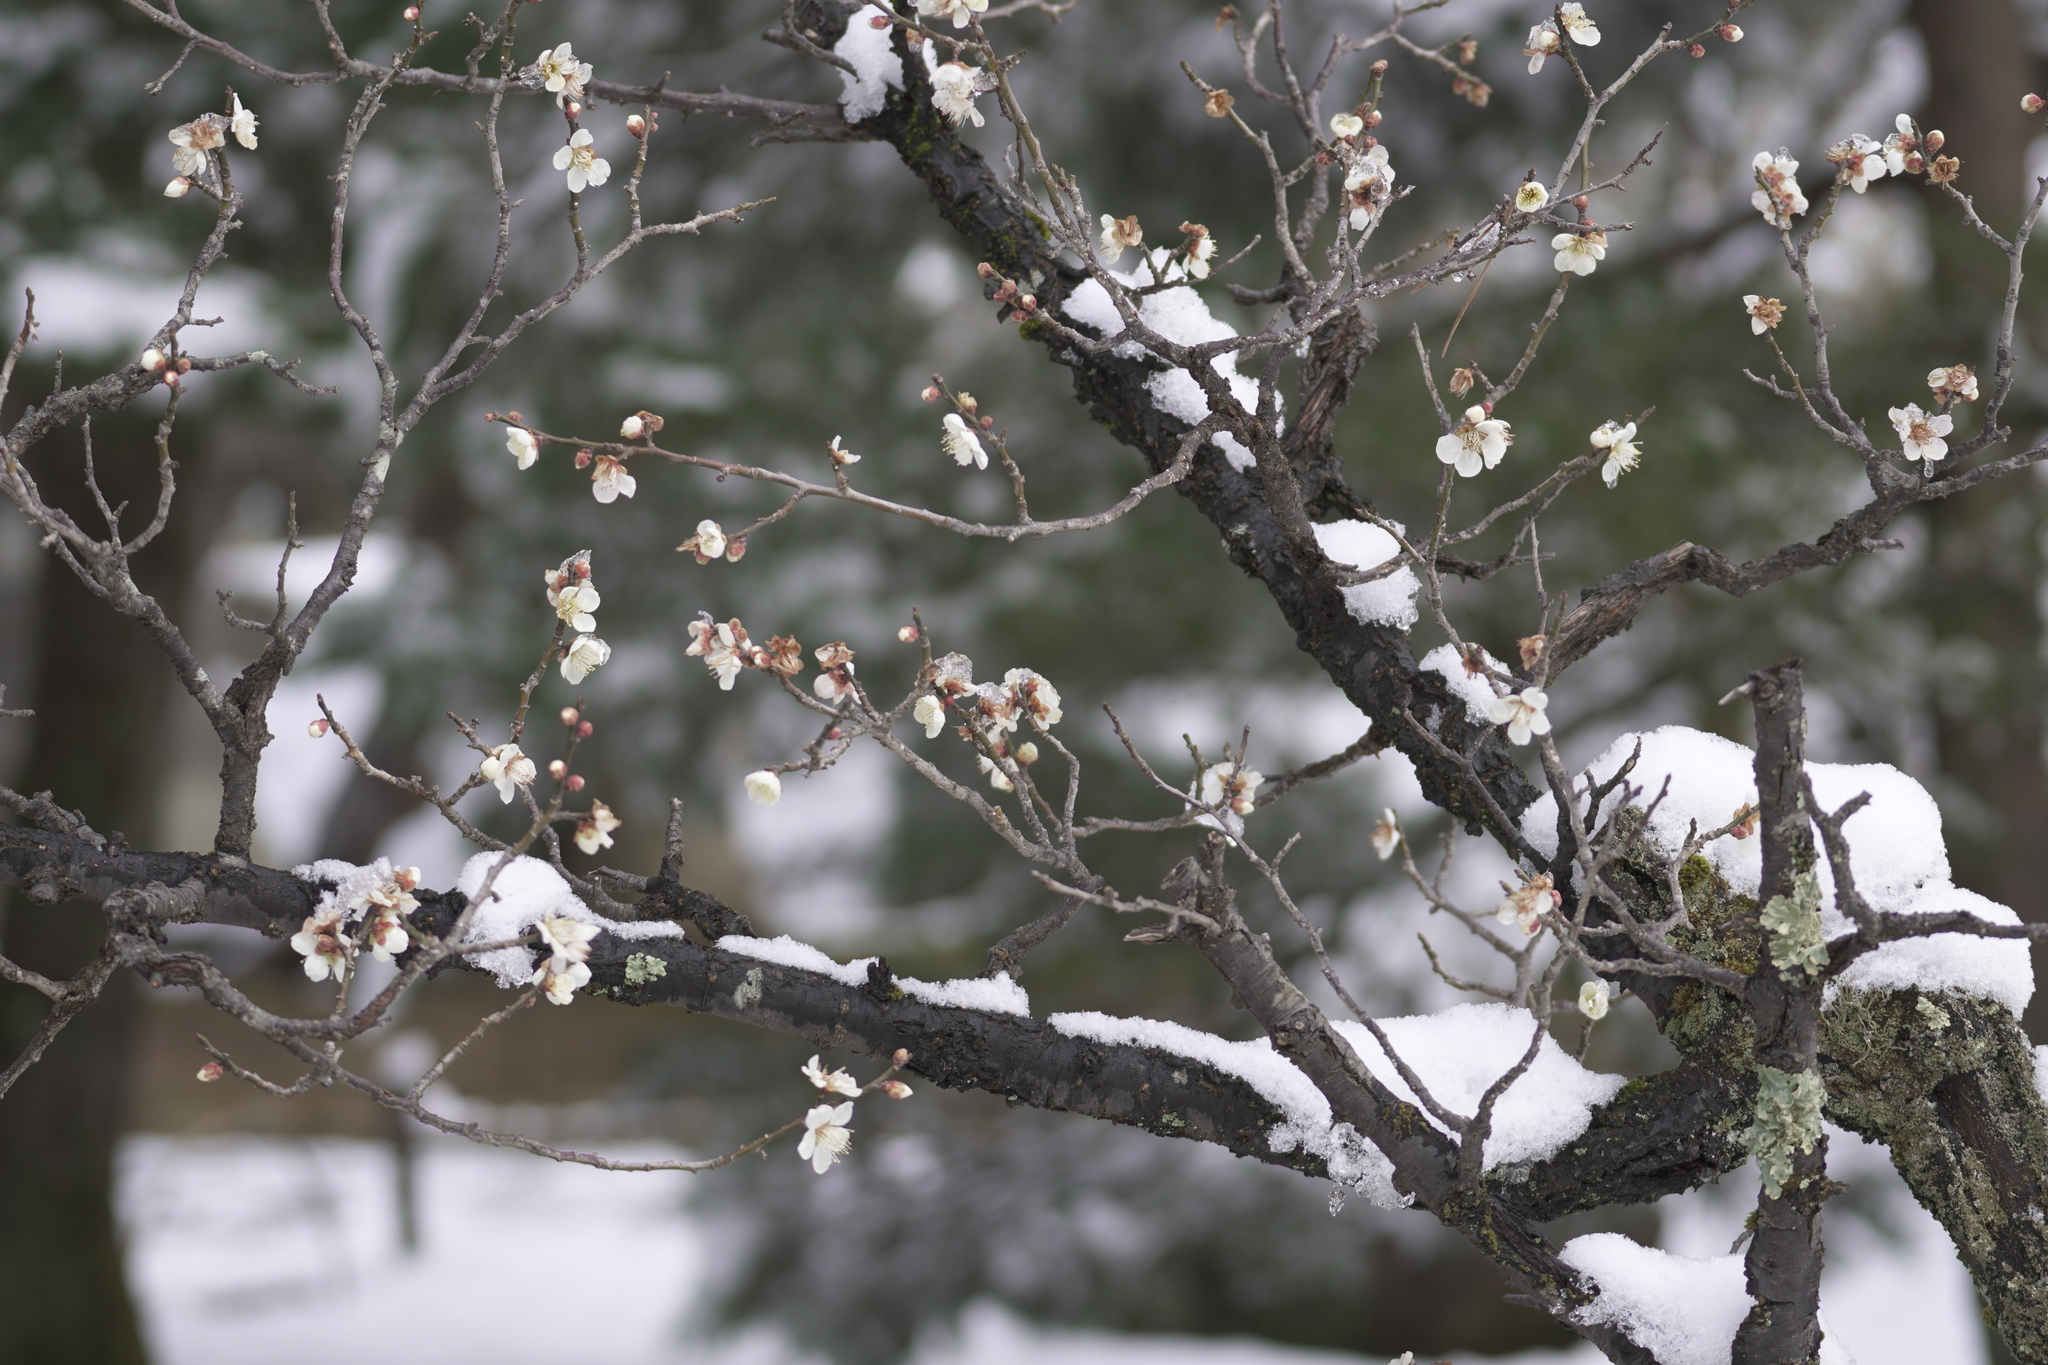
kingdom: Plantae
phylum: Tracheophyta
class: Magnoliopsida
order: Rosales
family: Rosaceae
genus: Prunus
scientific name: Prunus mume
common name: Japanese apricot
